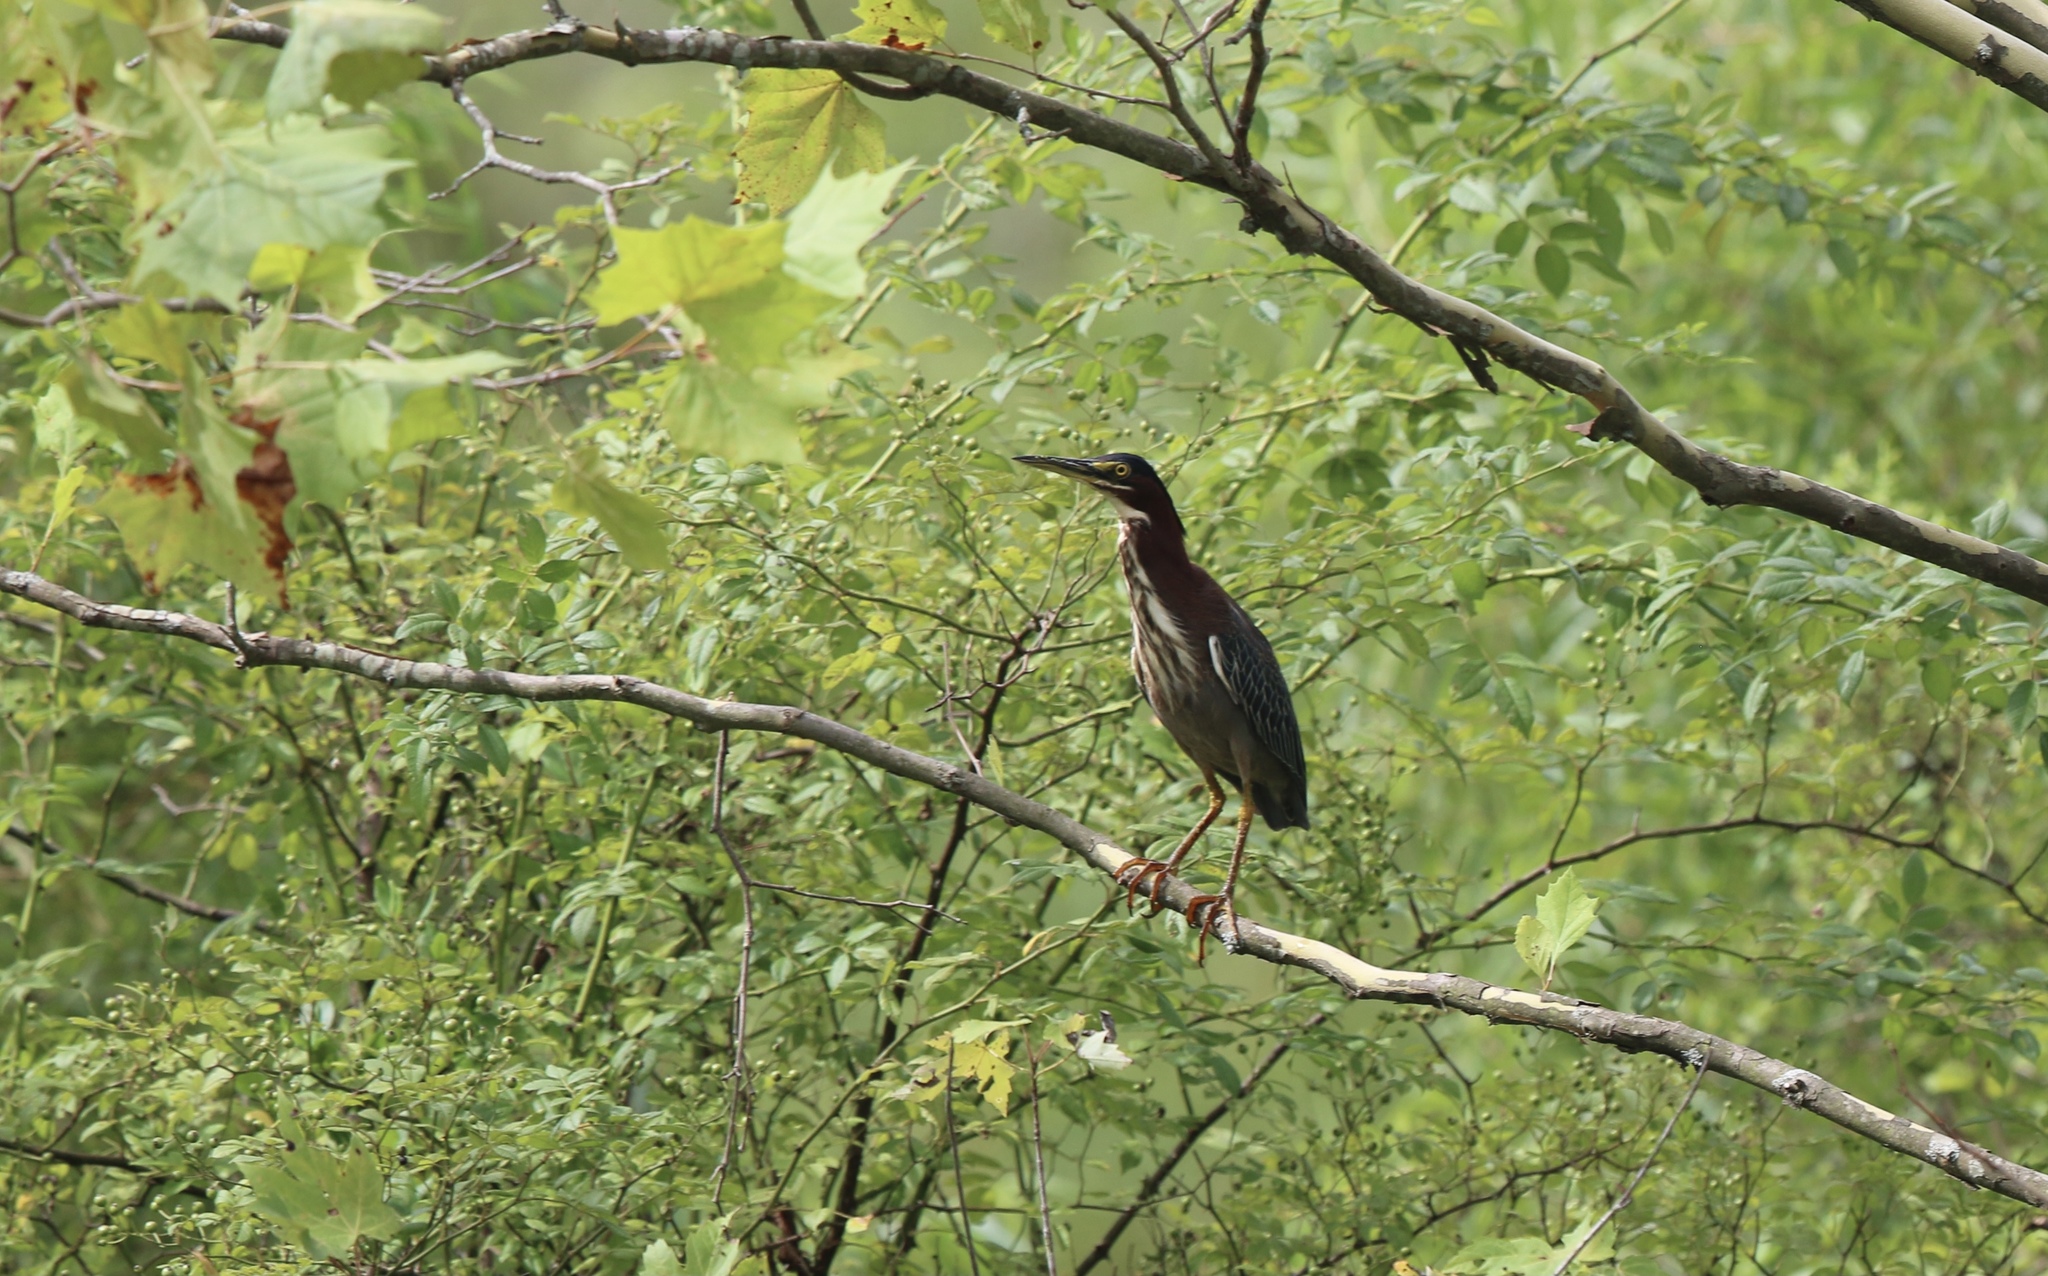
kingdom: Animalia
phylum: Chordata
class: Aves
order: Pelecaniformes
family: Ardeidae
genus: Butorides
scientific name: Butorides virescens
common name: Green heron
